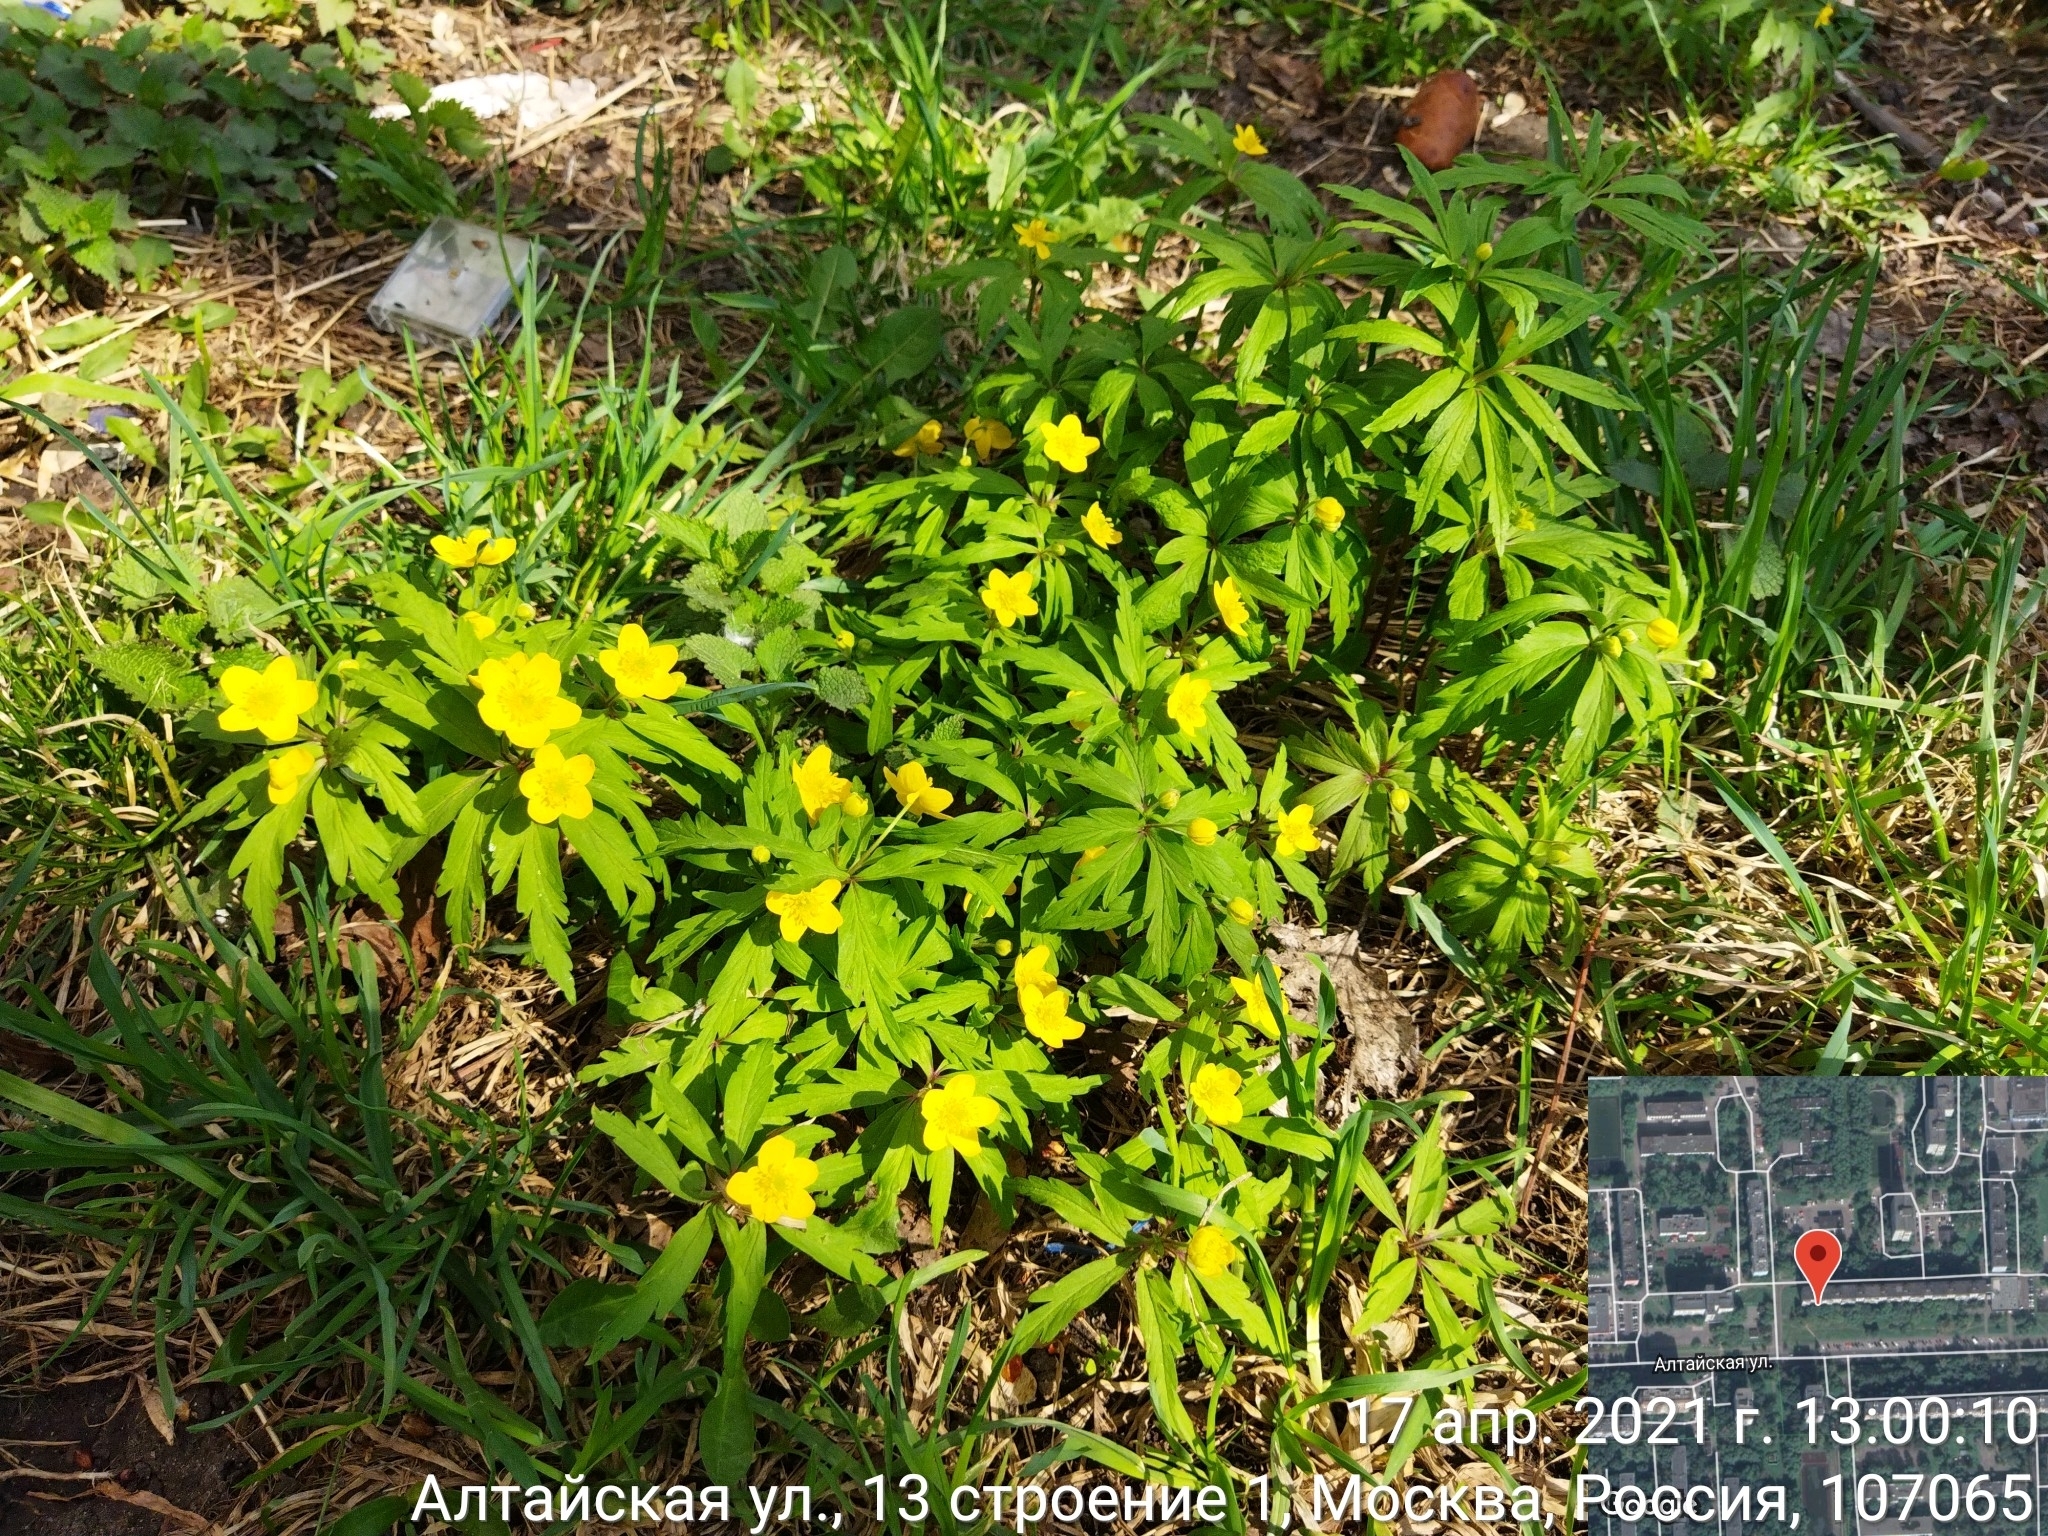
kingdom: Plantae
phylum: Tracheophyta
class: Magnoliopsida
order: Ranunculales
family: Ranunculaceae
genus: Anemone
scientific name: Anemone ranunculoides
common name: Yellow anemone
